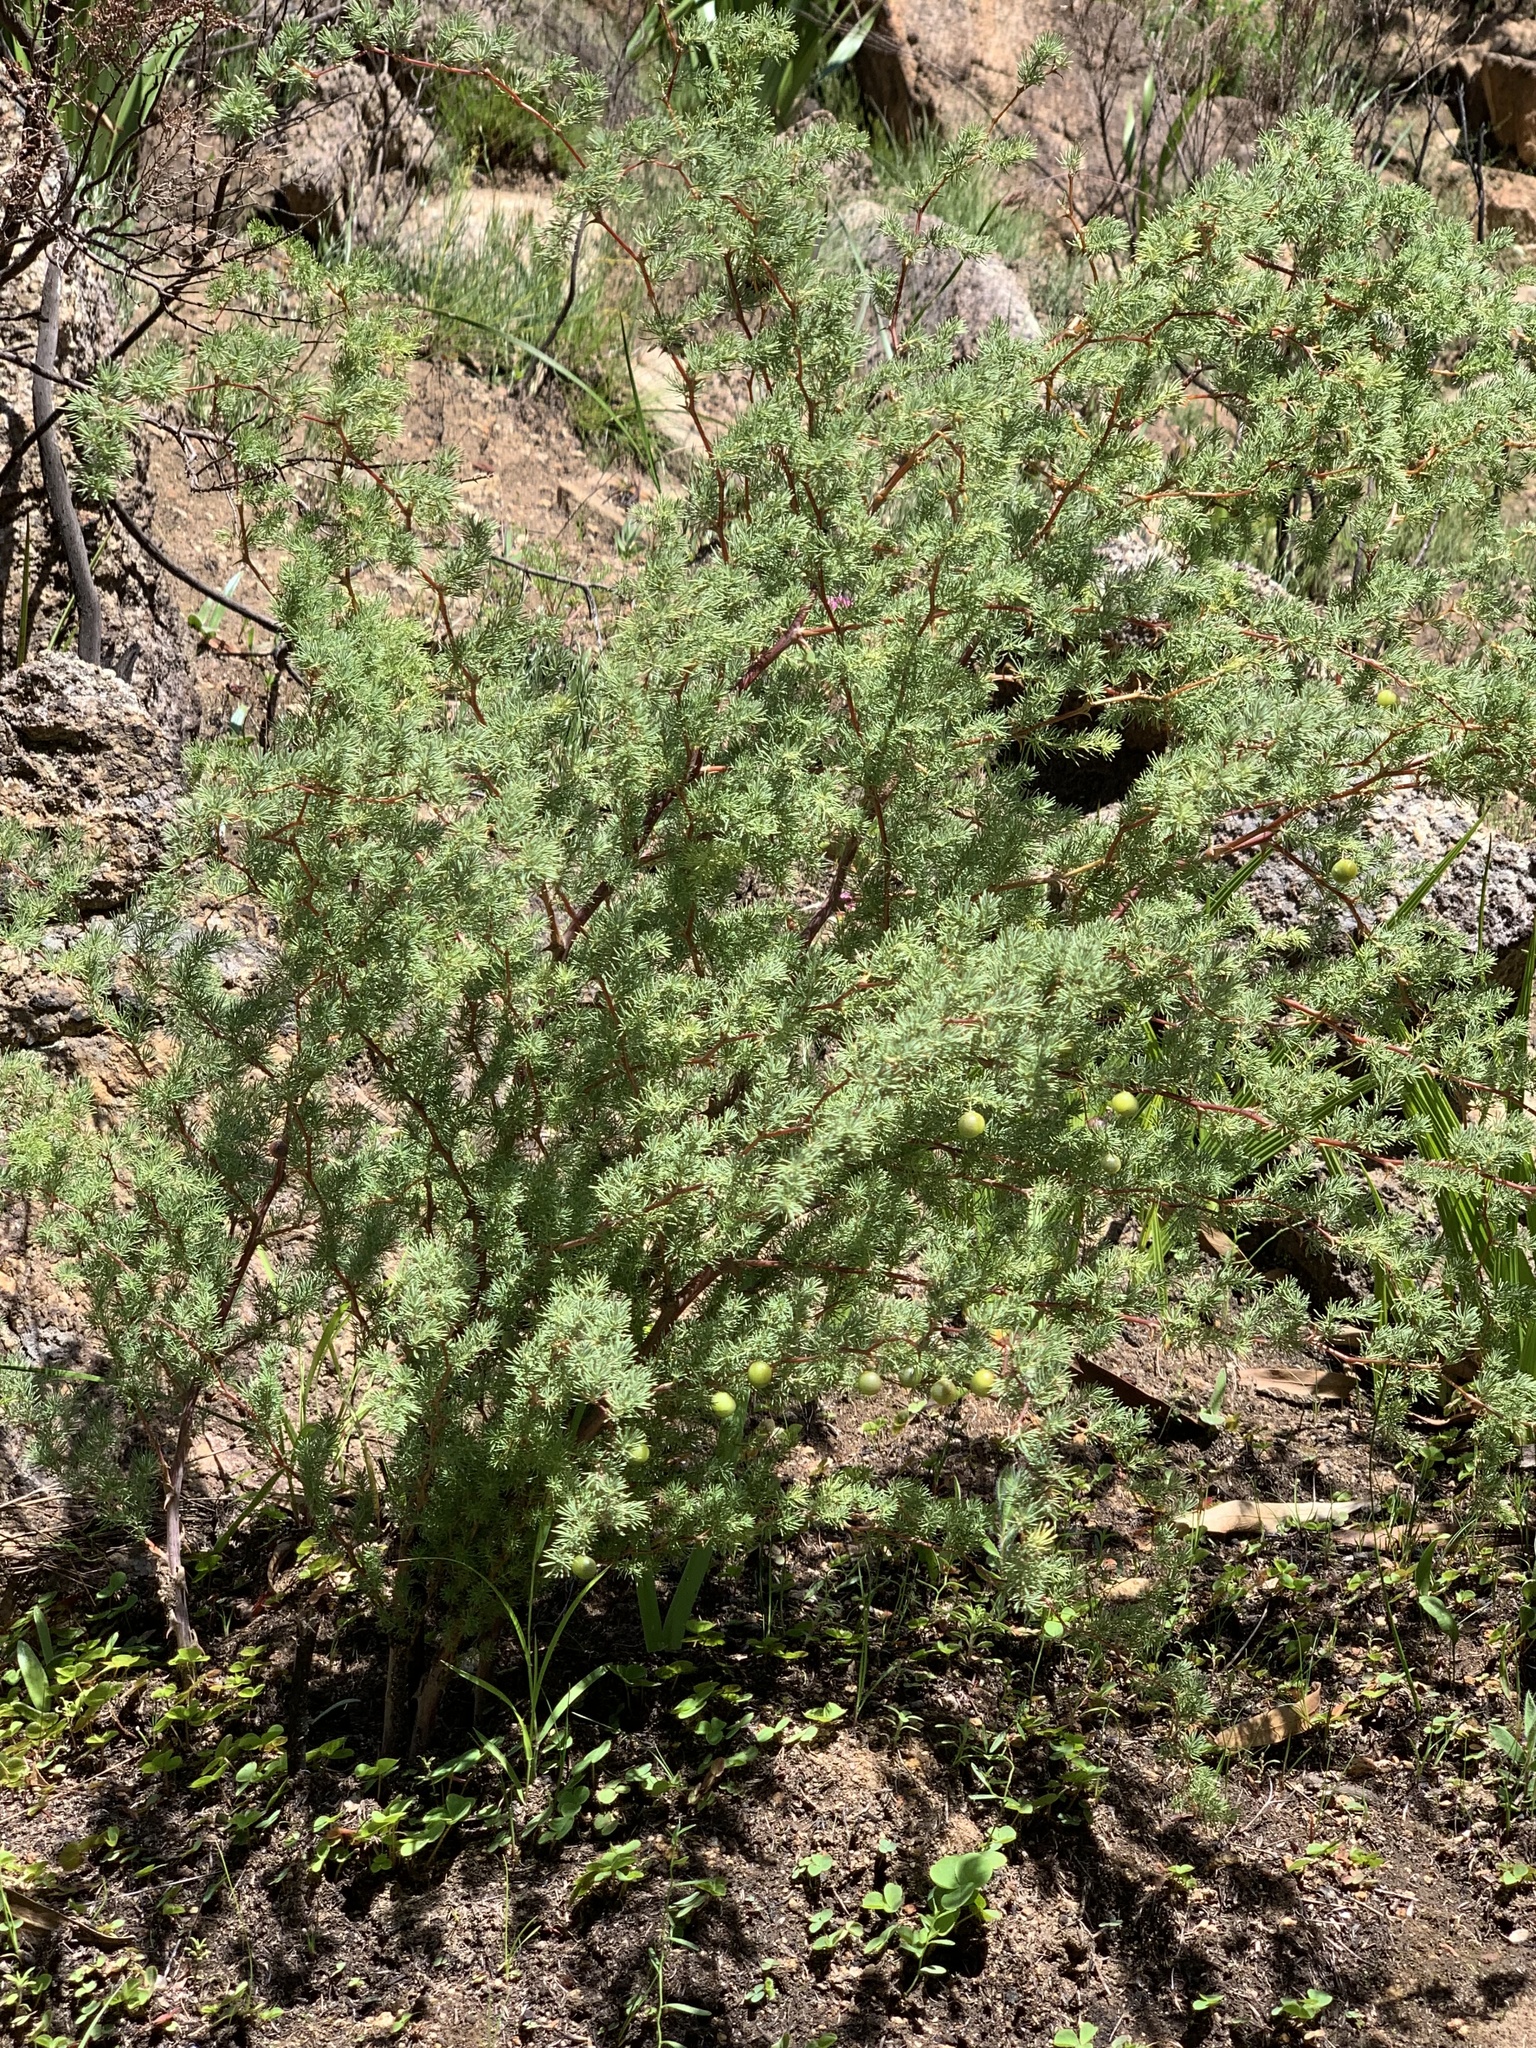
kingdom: Plantae
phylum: Tracheophyta
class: Liliopsida
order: Asparagales
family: Asparagaceae
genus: Asparagus
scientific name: Asparagus rubicundus
